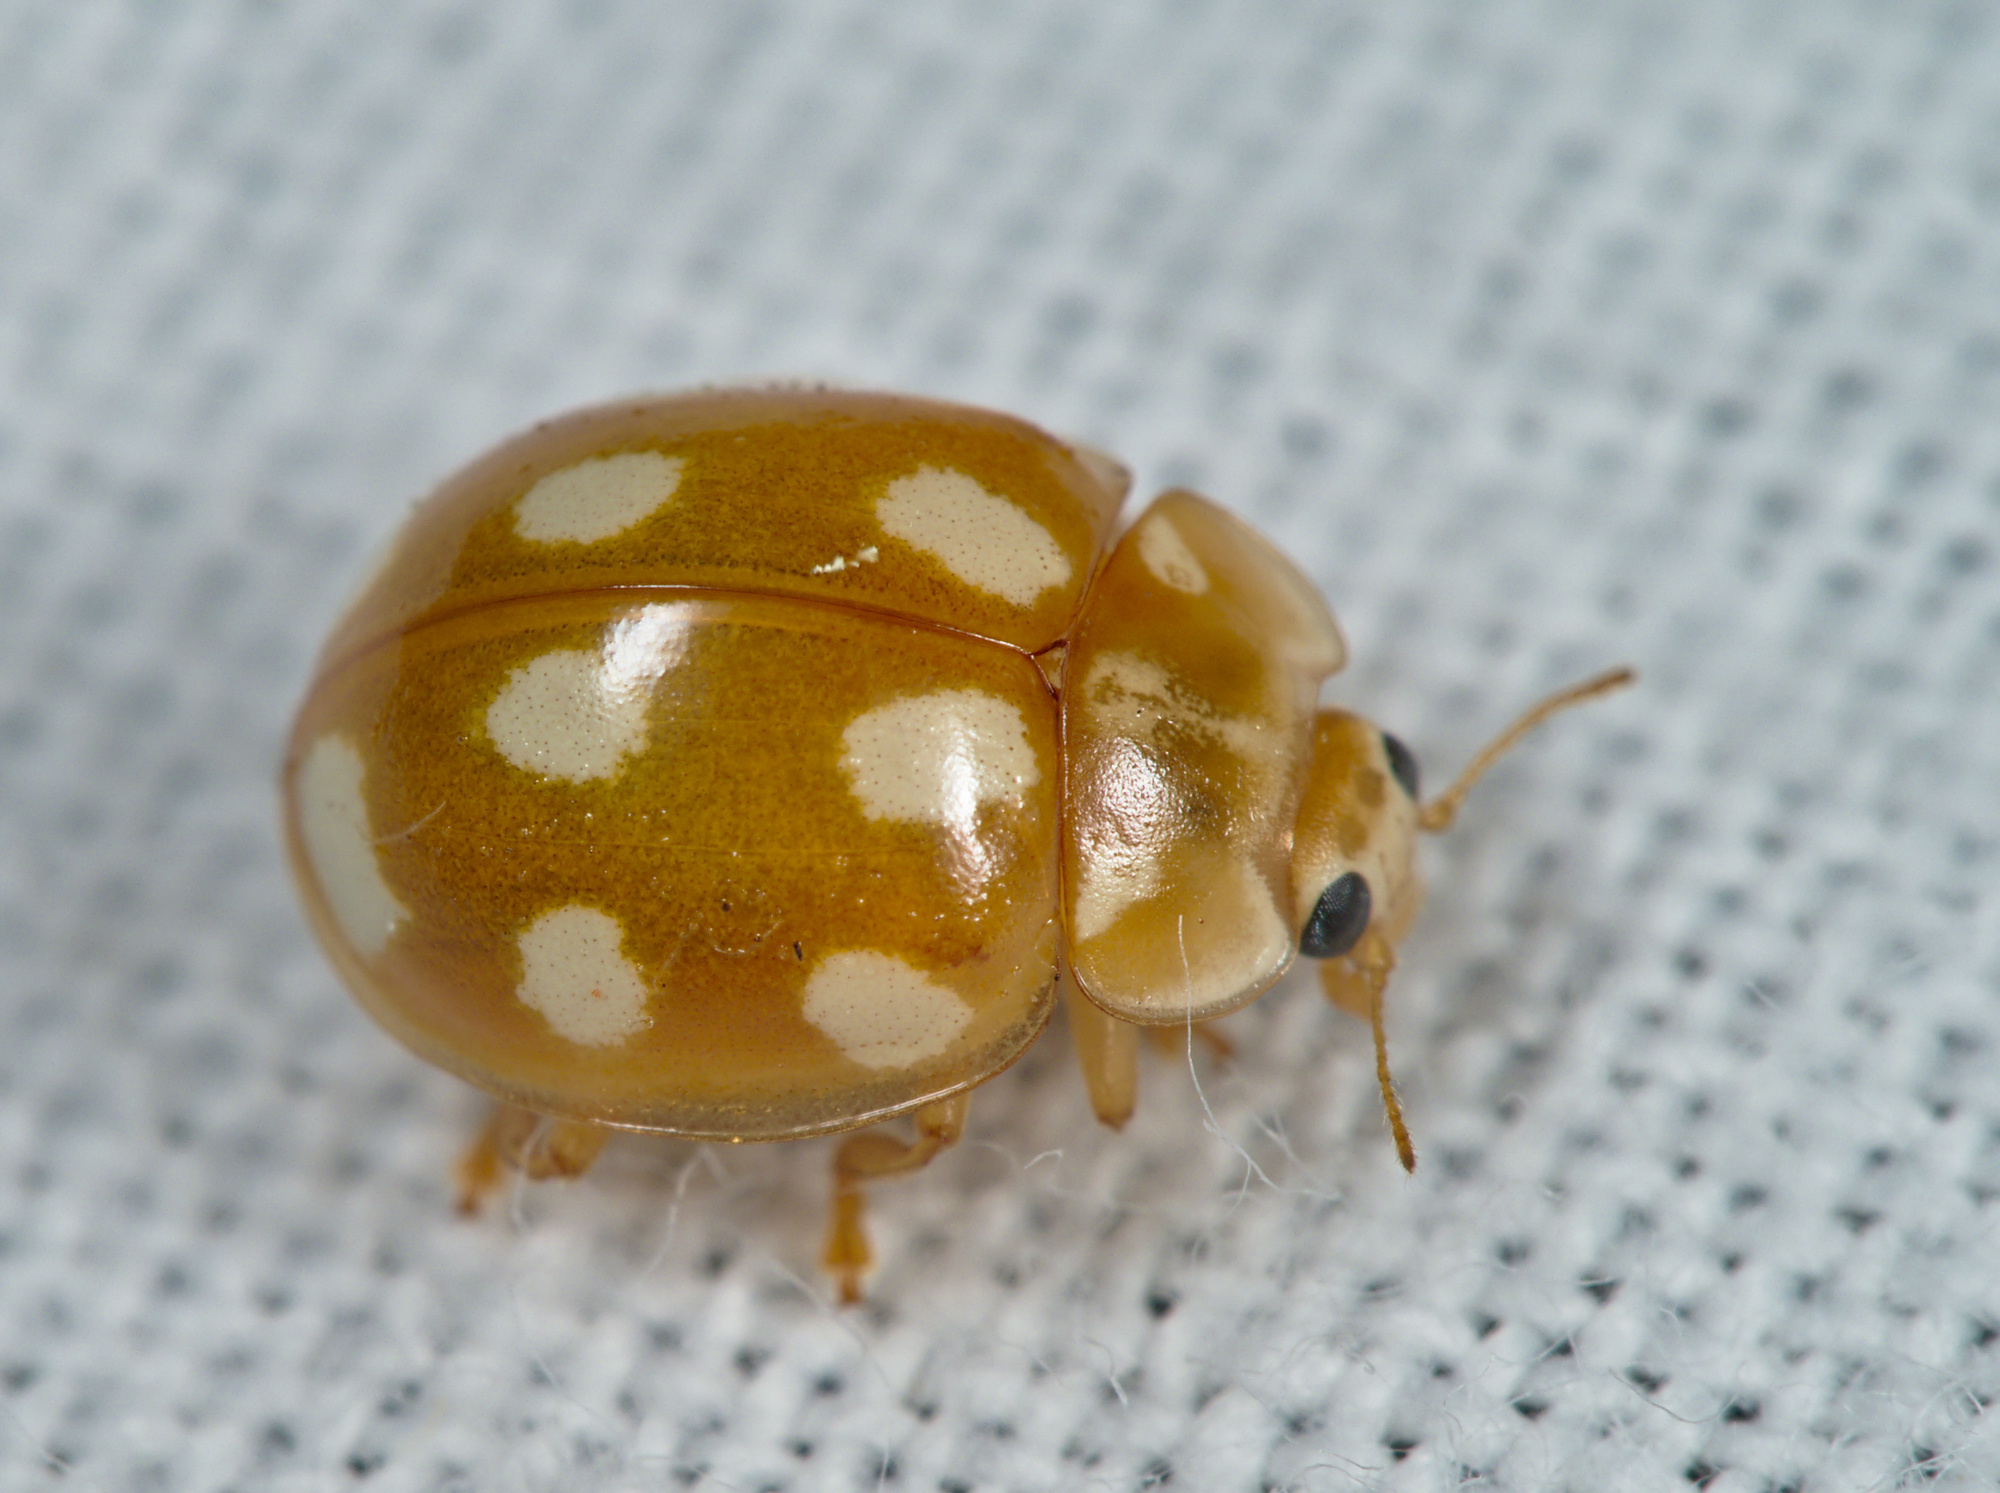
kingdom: Animalia
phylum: Arthropoda
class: Insecta
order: Coleoptera
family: Coccinellidae
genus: Calvia
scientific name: Calvia decemguttata
